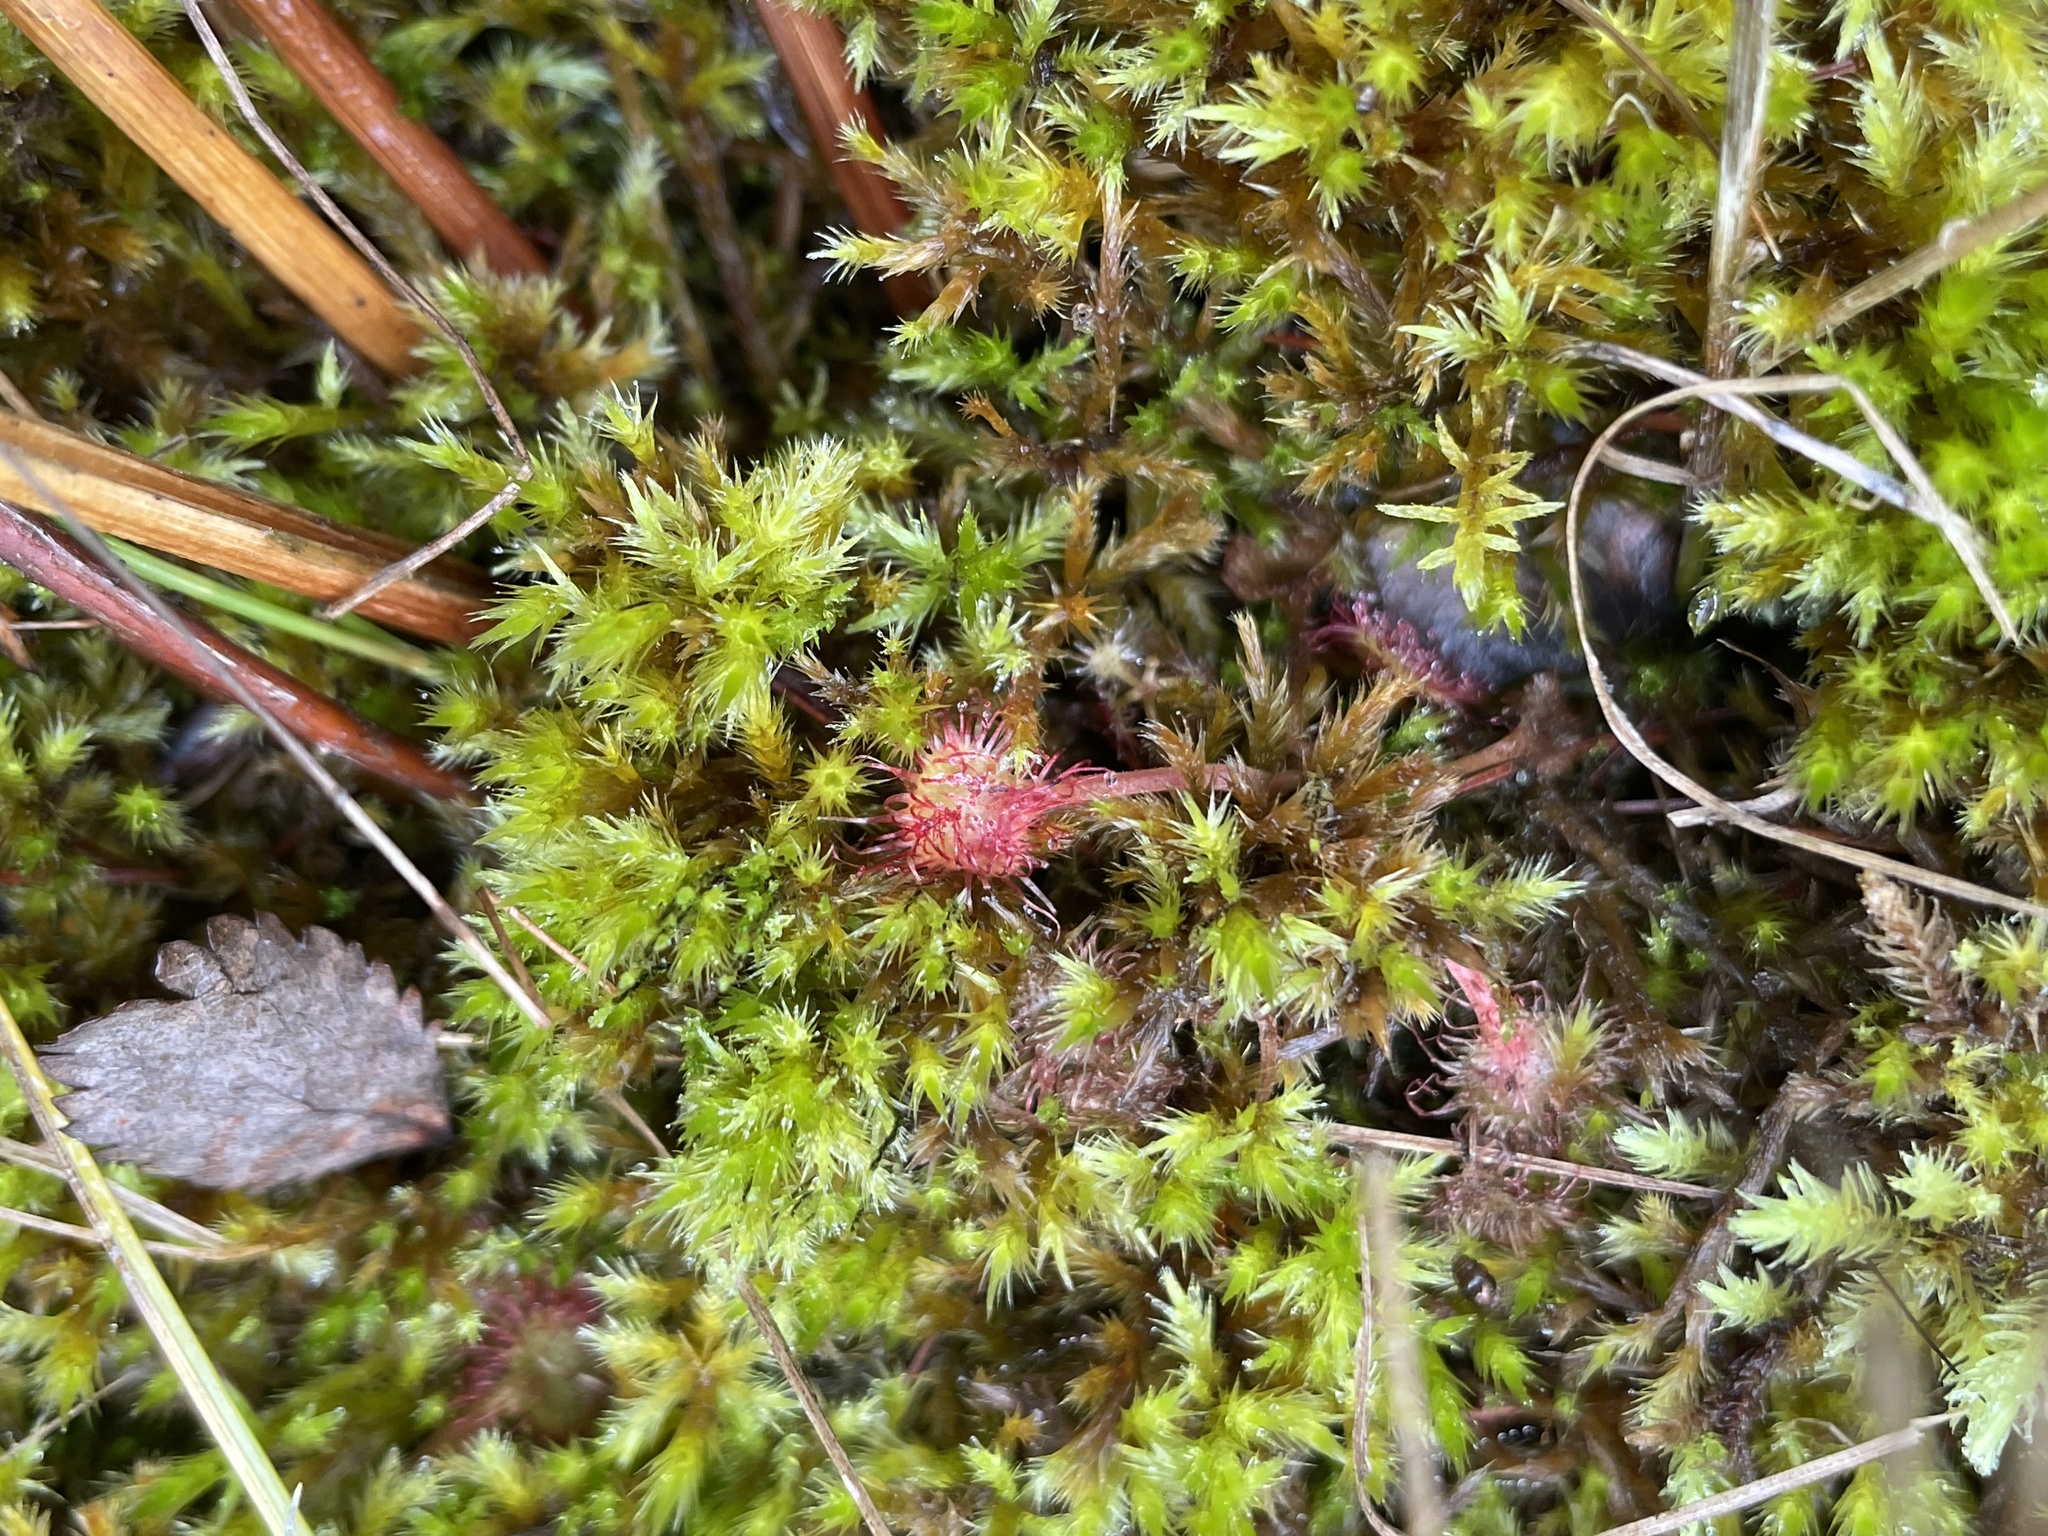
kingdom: Plantae
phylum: Tracheophyta
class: Magnoliopsida
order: Caryophyllales
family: Droseraceae
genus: Drosera
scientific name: Drosera rotundifolia
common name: Round-leaved sundew
